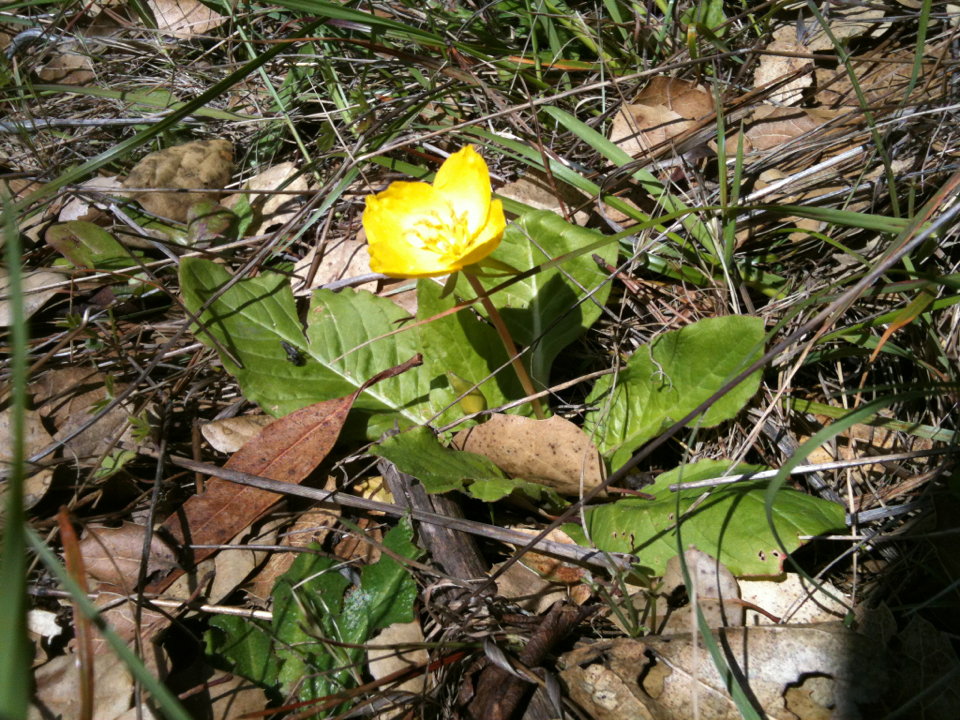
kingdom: Plantae
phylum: Tracheophyta
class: Magnoliopsida
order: Myrtales
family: Onagraceae
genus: Taraxia
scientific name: Taraxia ovata
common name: Goldeneggs
